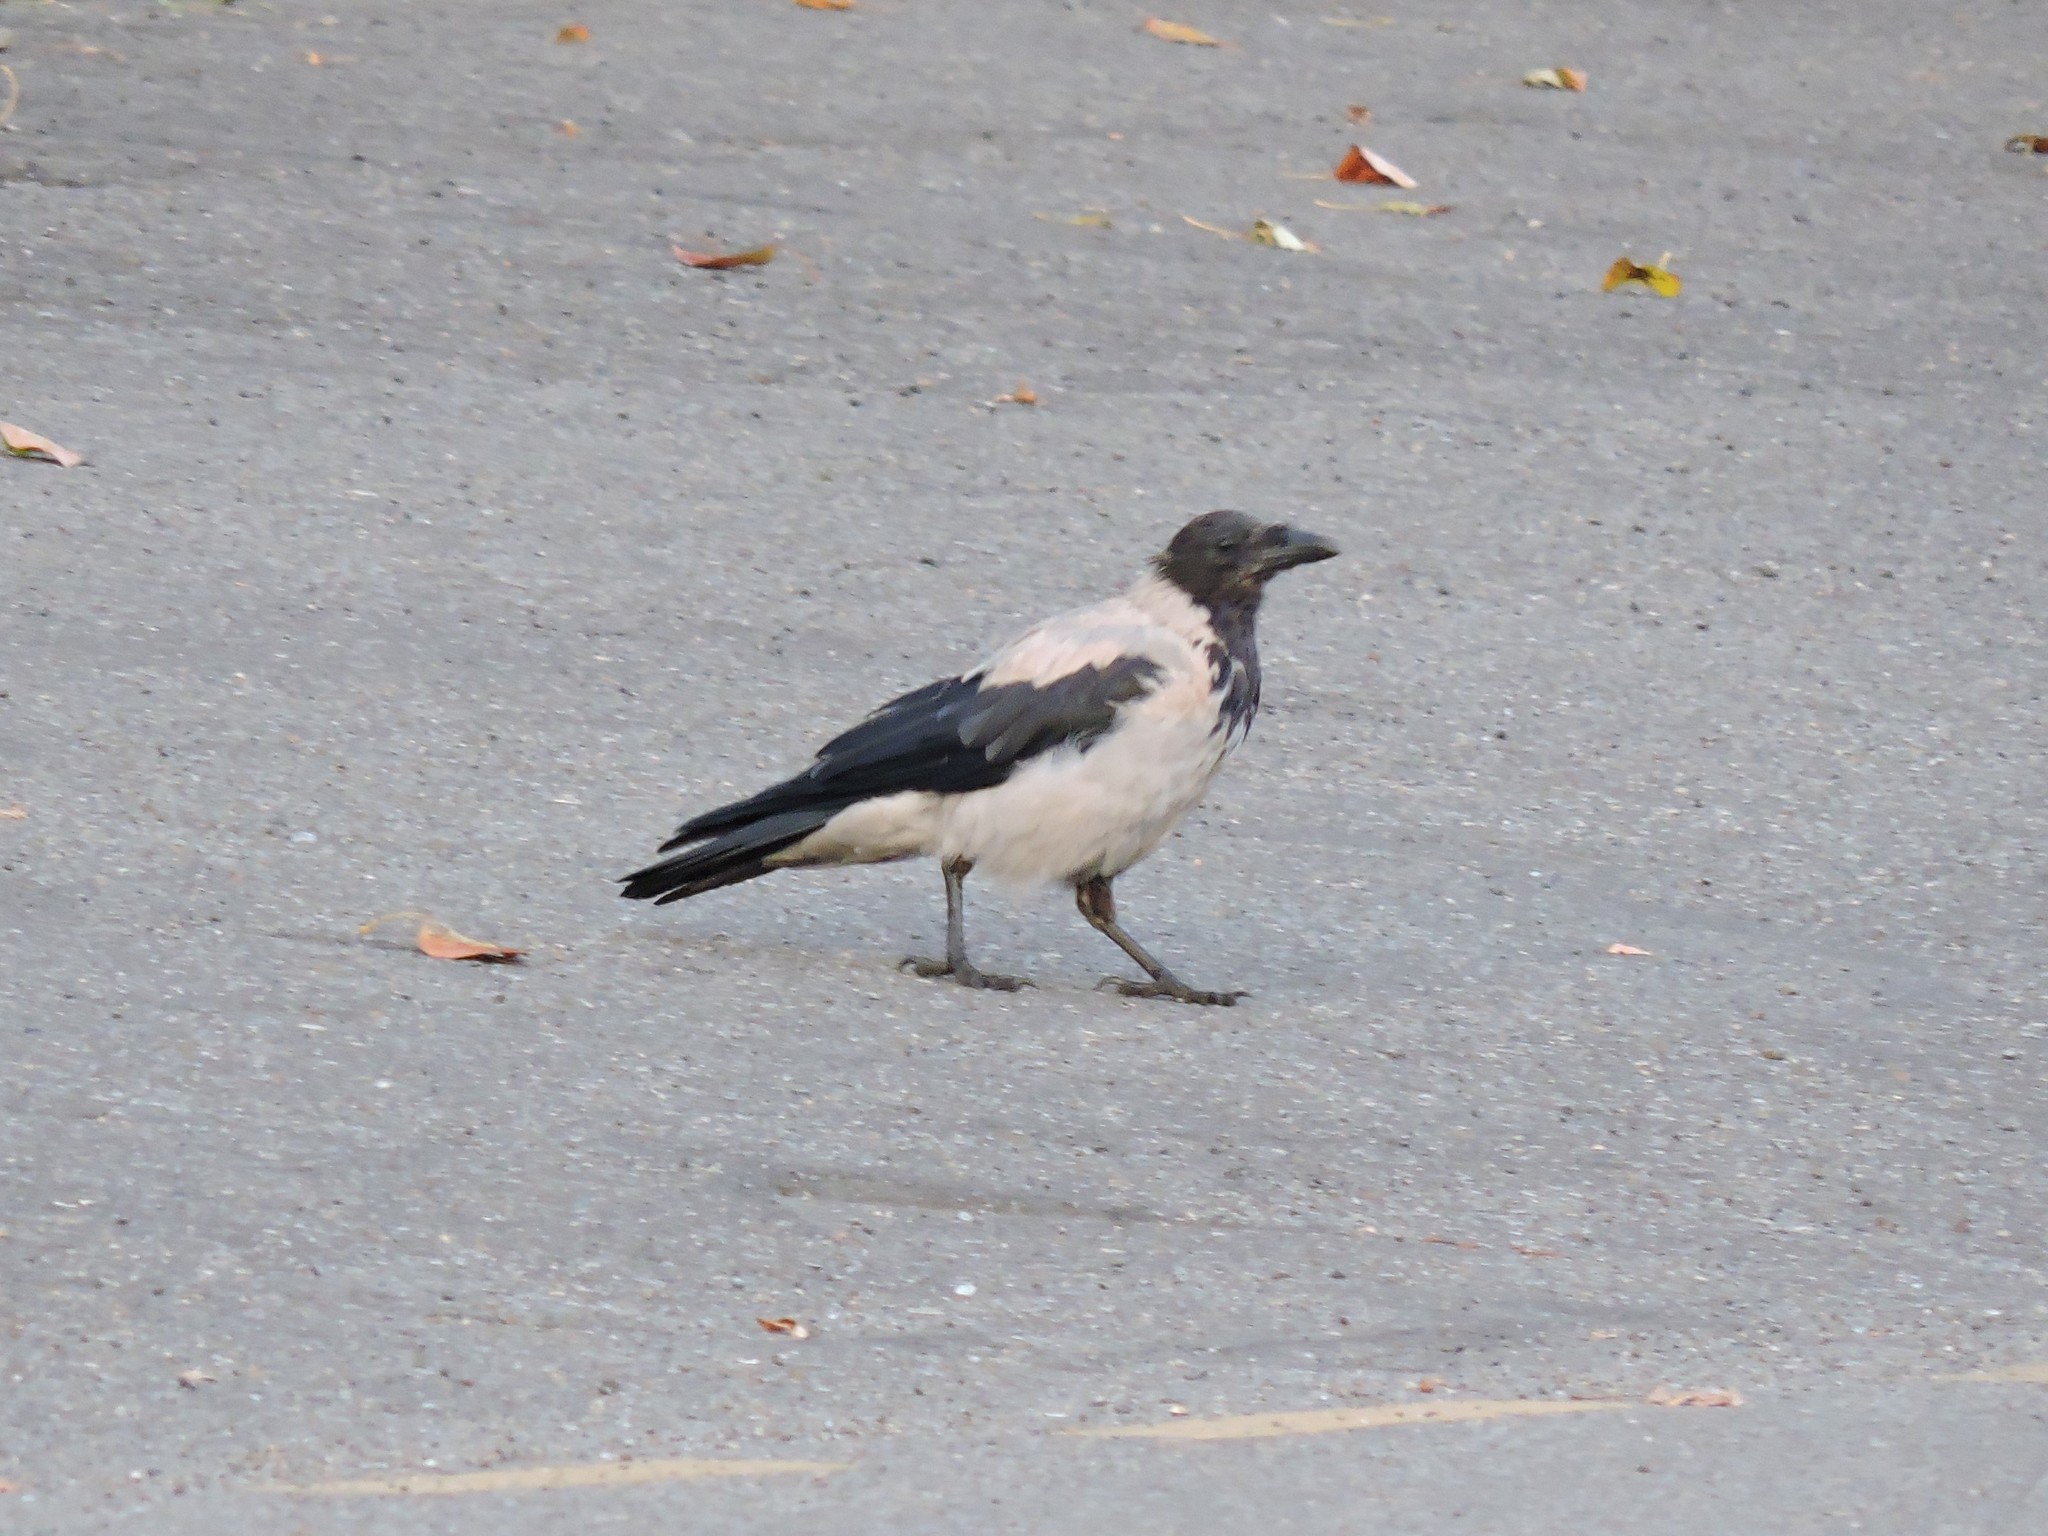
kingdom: Animalia
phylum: Chordata
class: Aves
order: Passeriformes
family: Corvidae
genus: Corvus
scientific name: Corvus cornix
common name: Hooded crow
